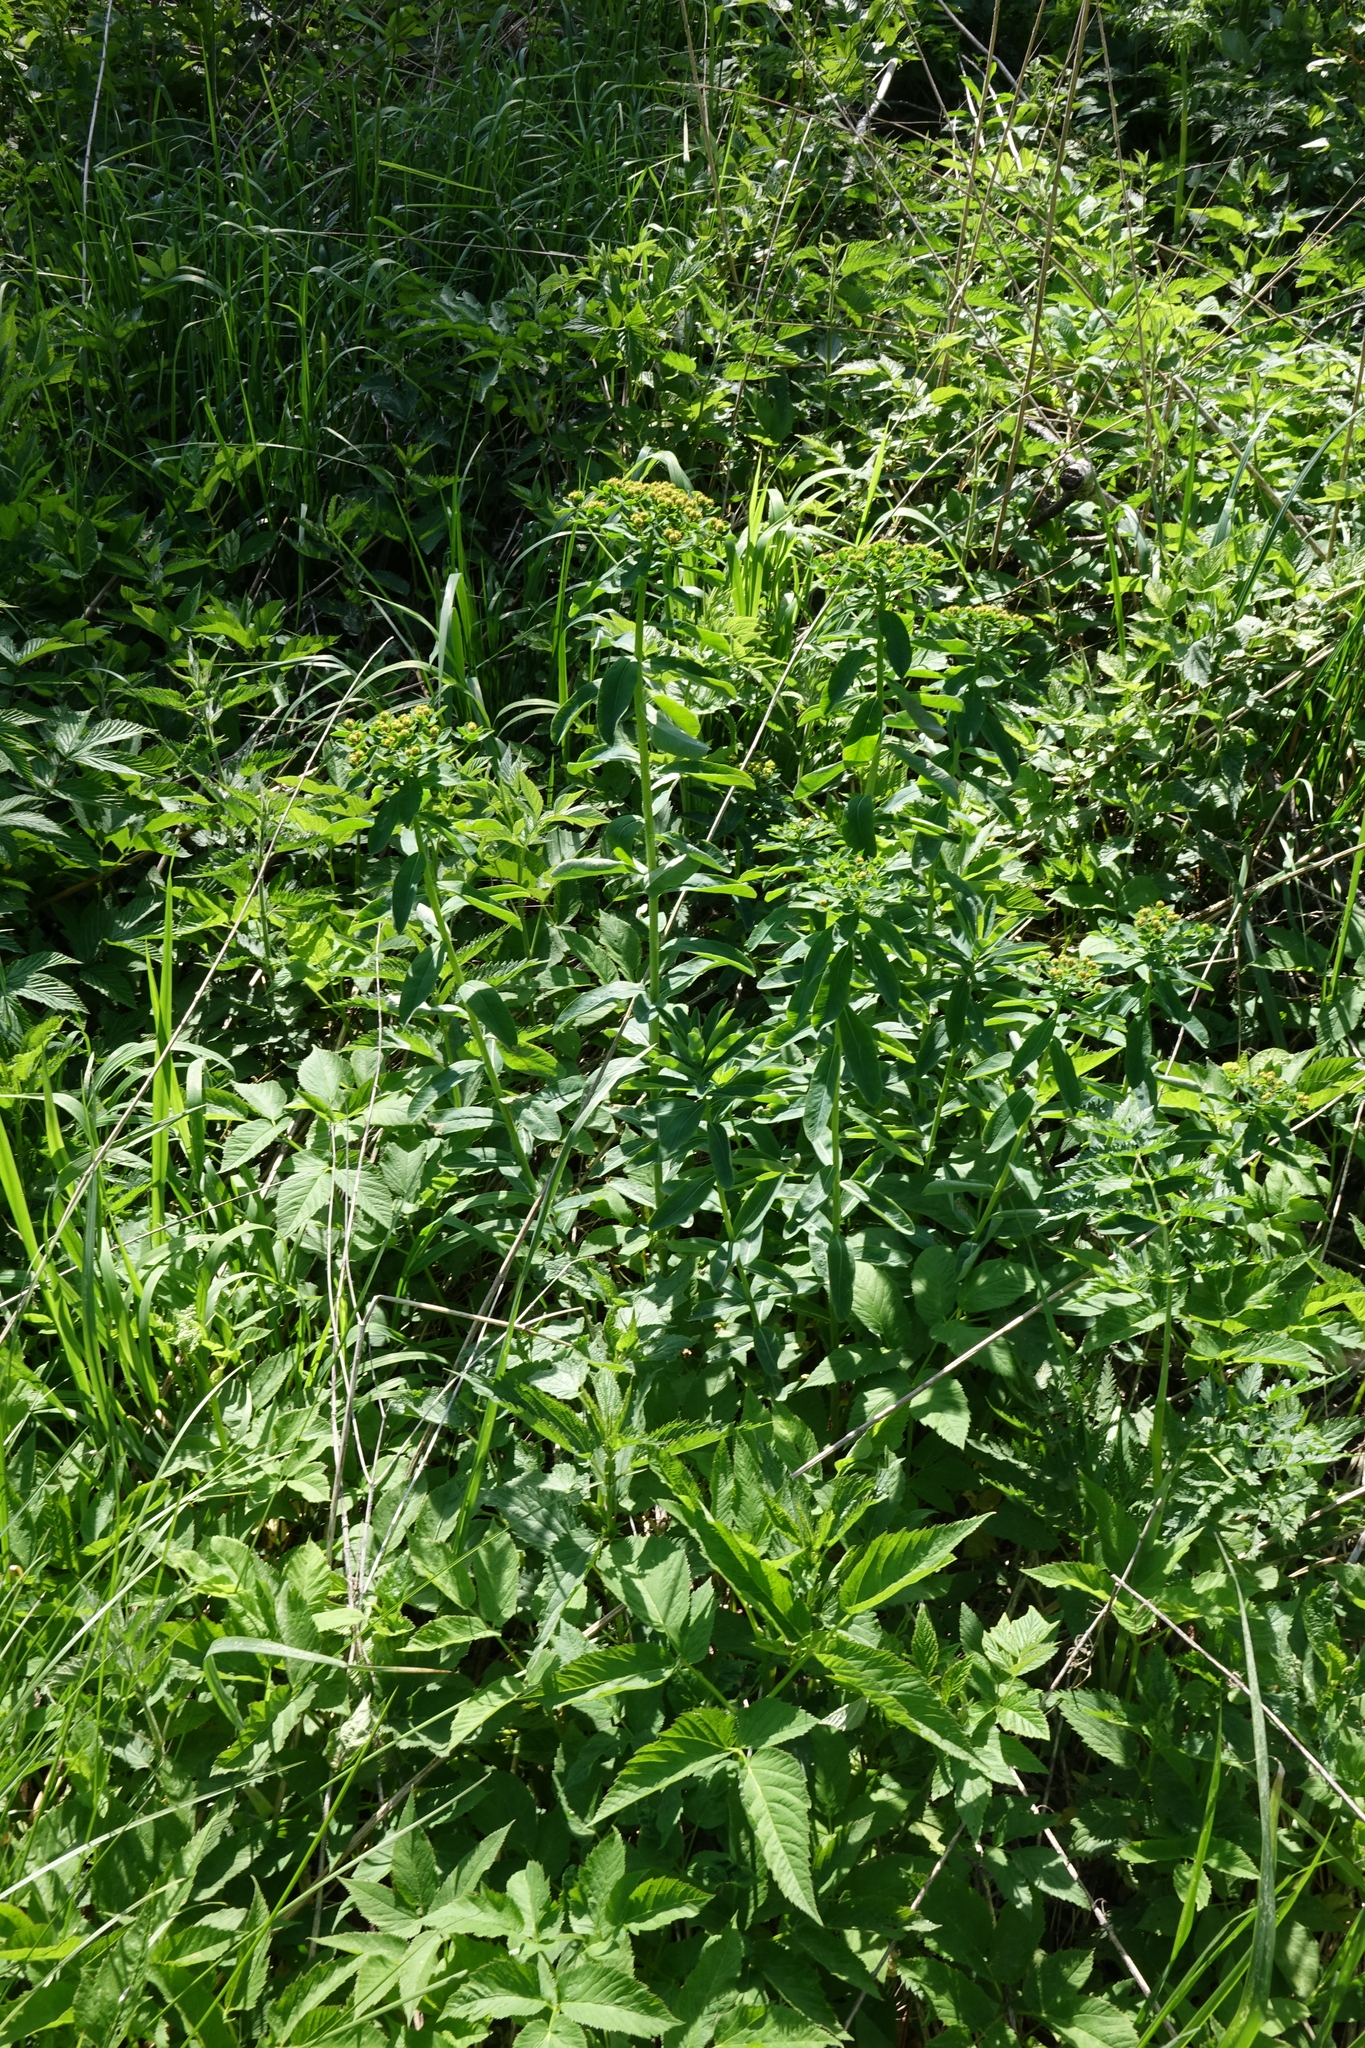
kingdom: Plantae
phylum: Tracheophyta
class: Magnoliopsida
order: Malpighiales
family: Euphorbiaceae
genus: Euphorbia
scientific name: Euphorbia pilosa
